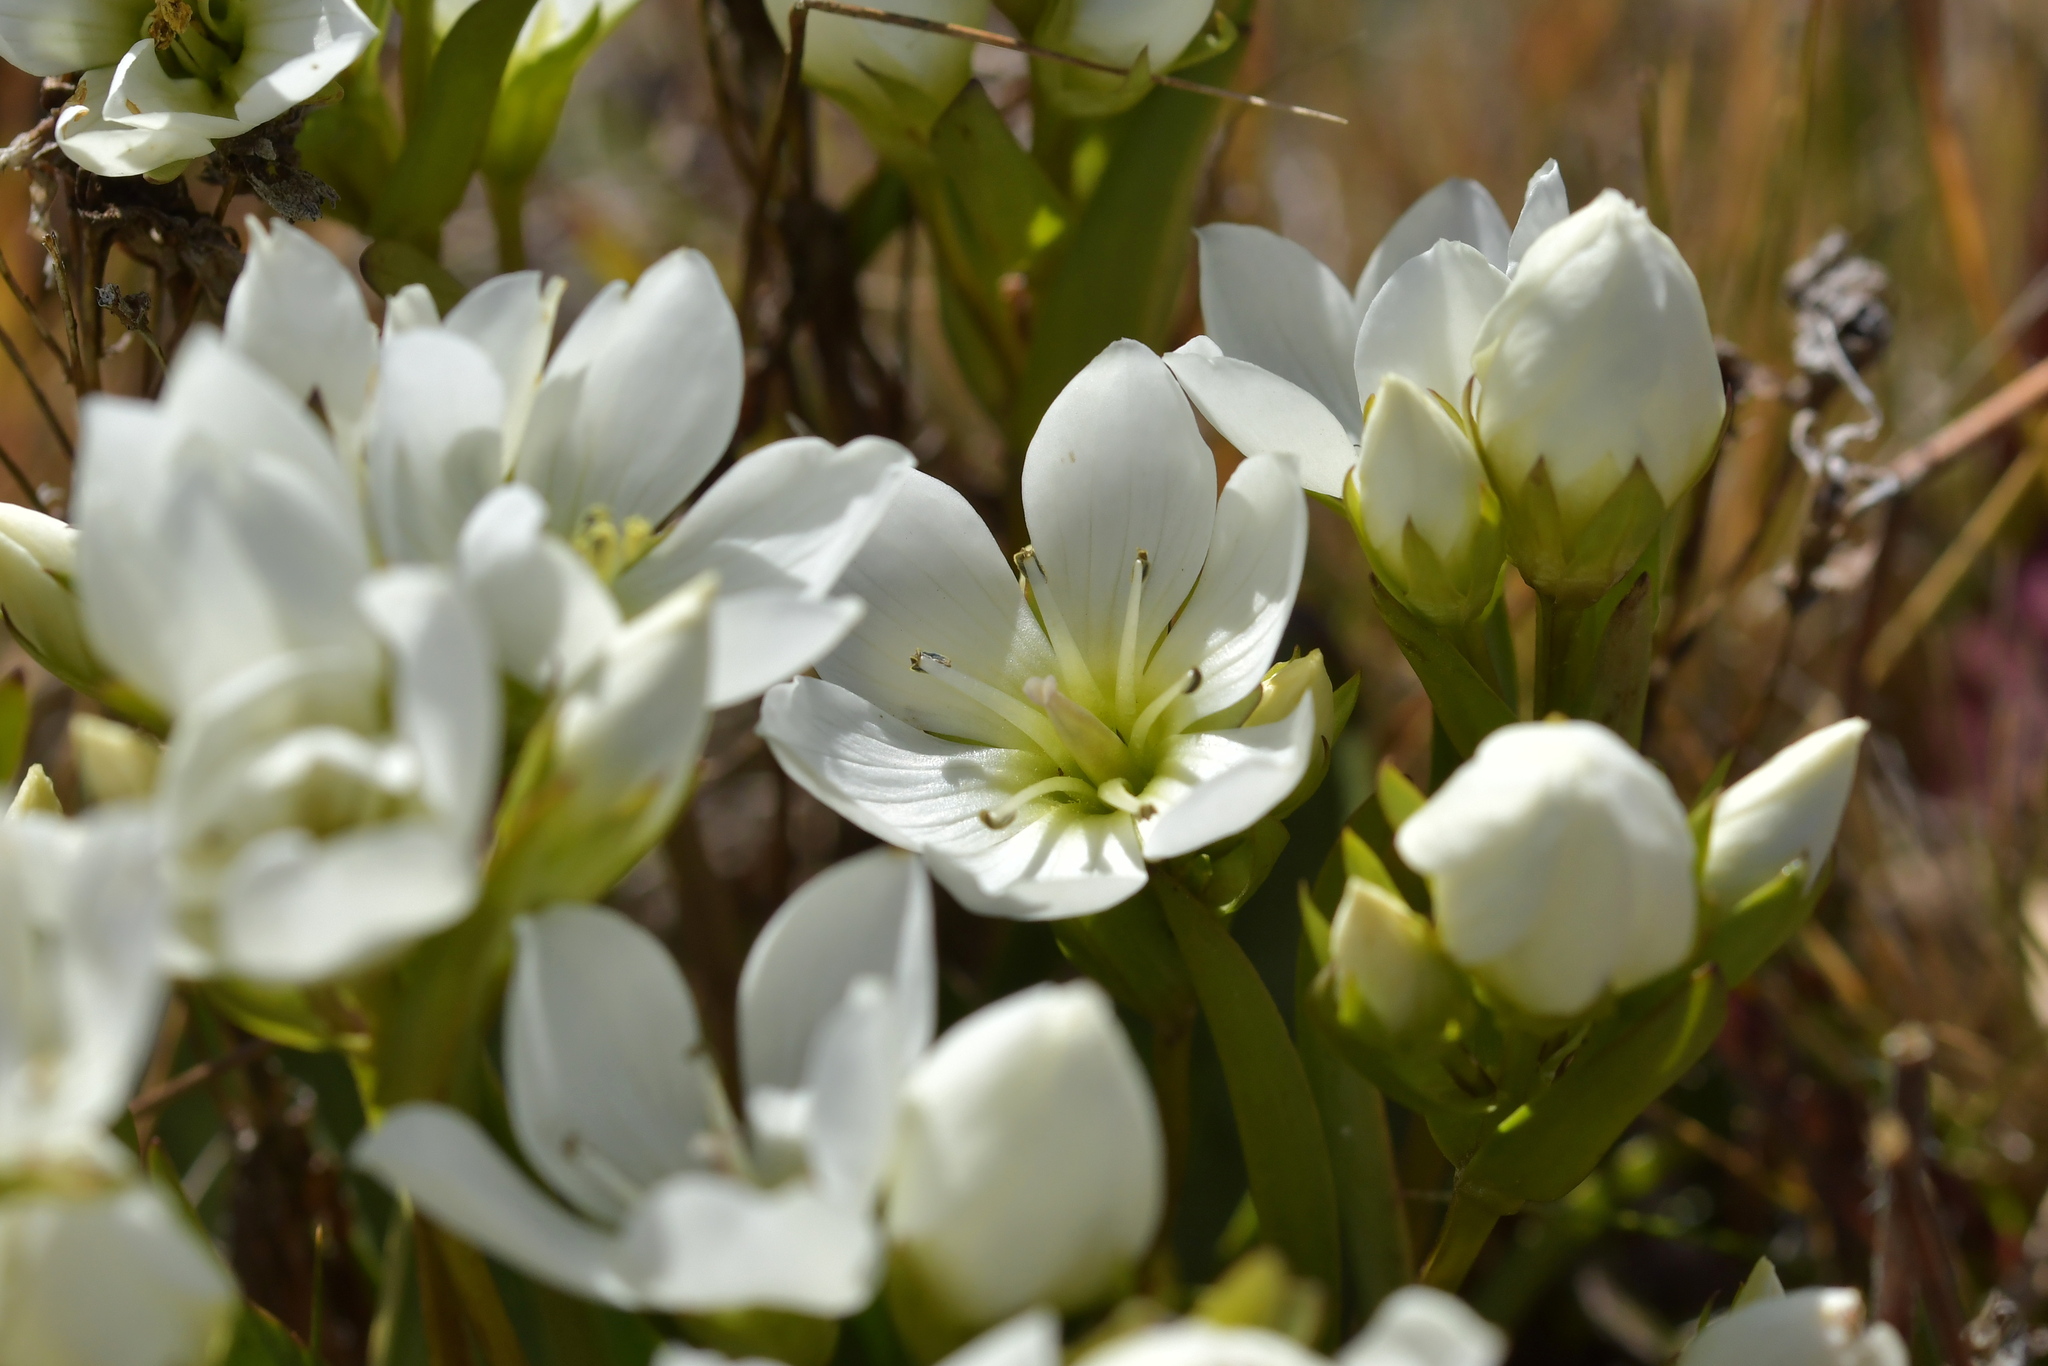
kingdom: Plantae
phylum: Tracheophyta
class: Magnoliopsida
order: Gentianales
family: Gentianaceae
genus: Gentianella
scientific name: Gentianella bellidifolia
